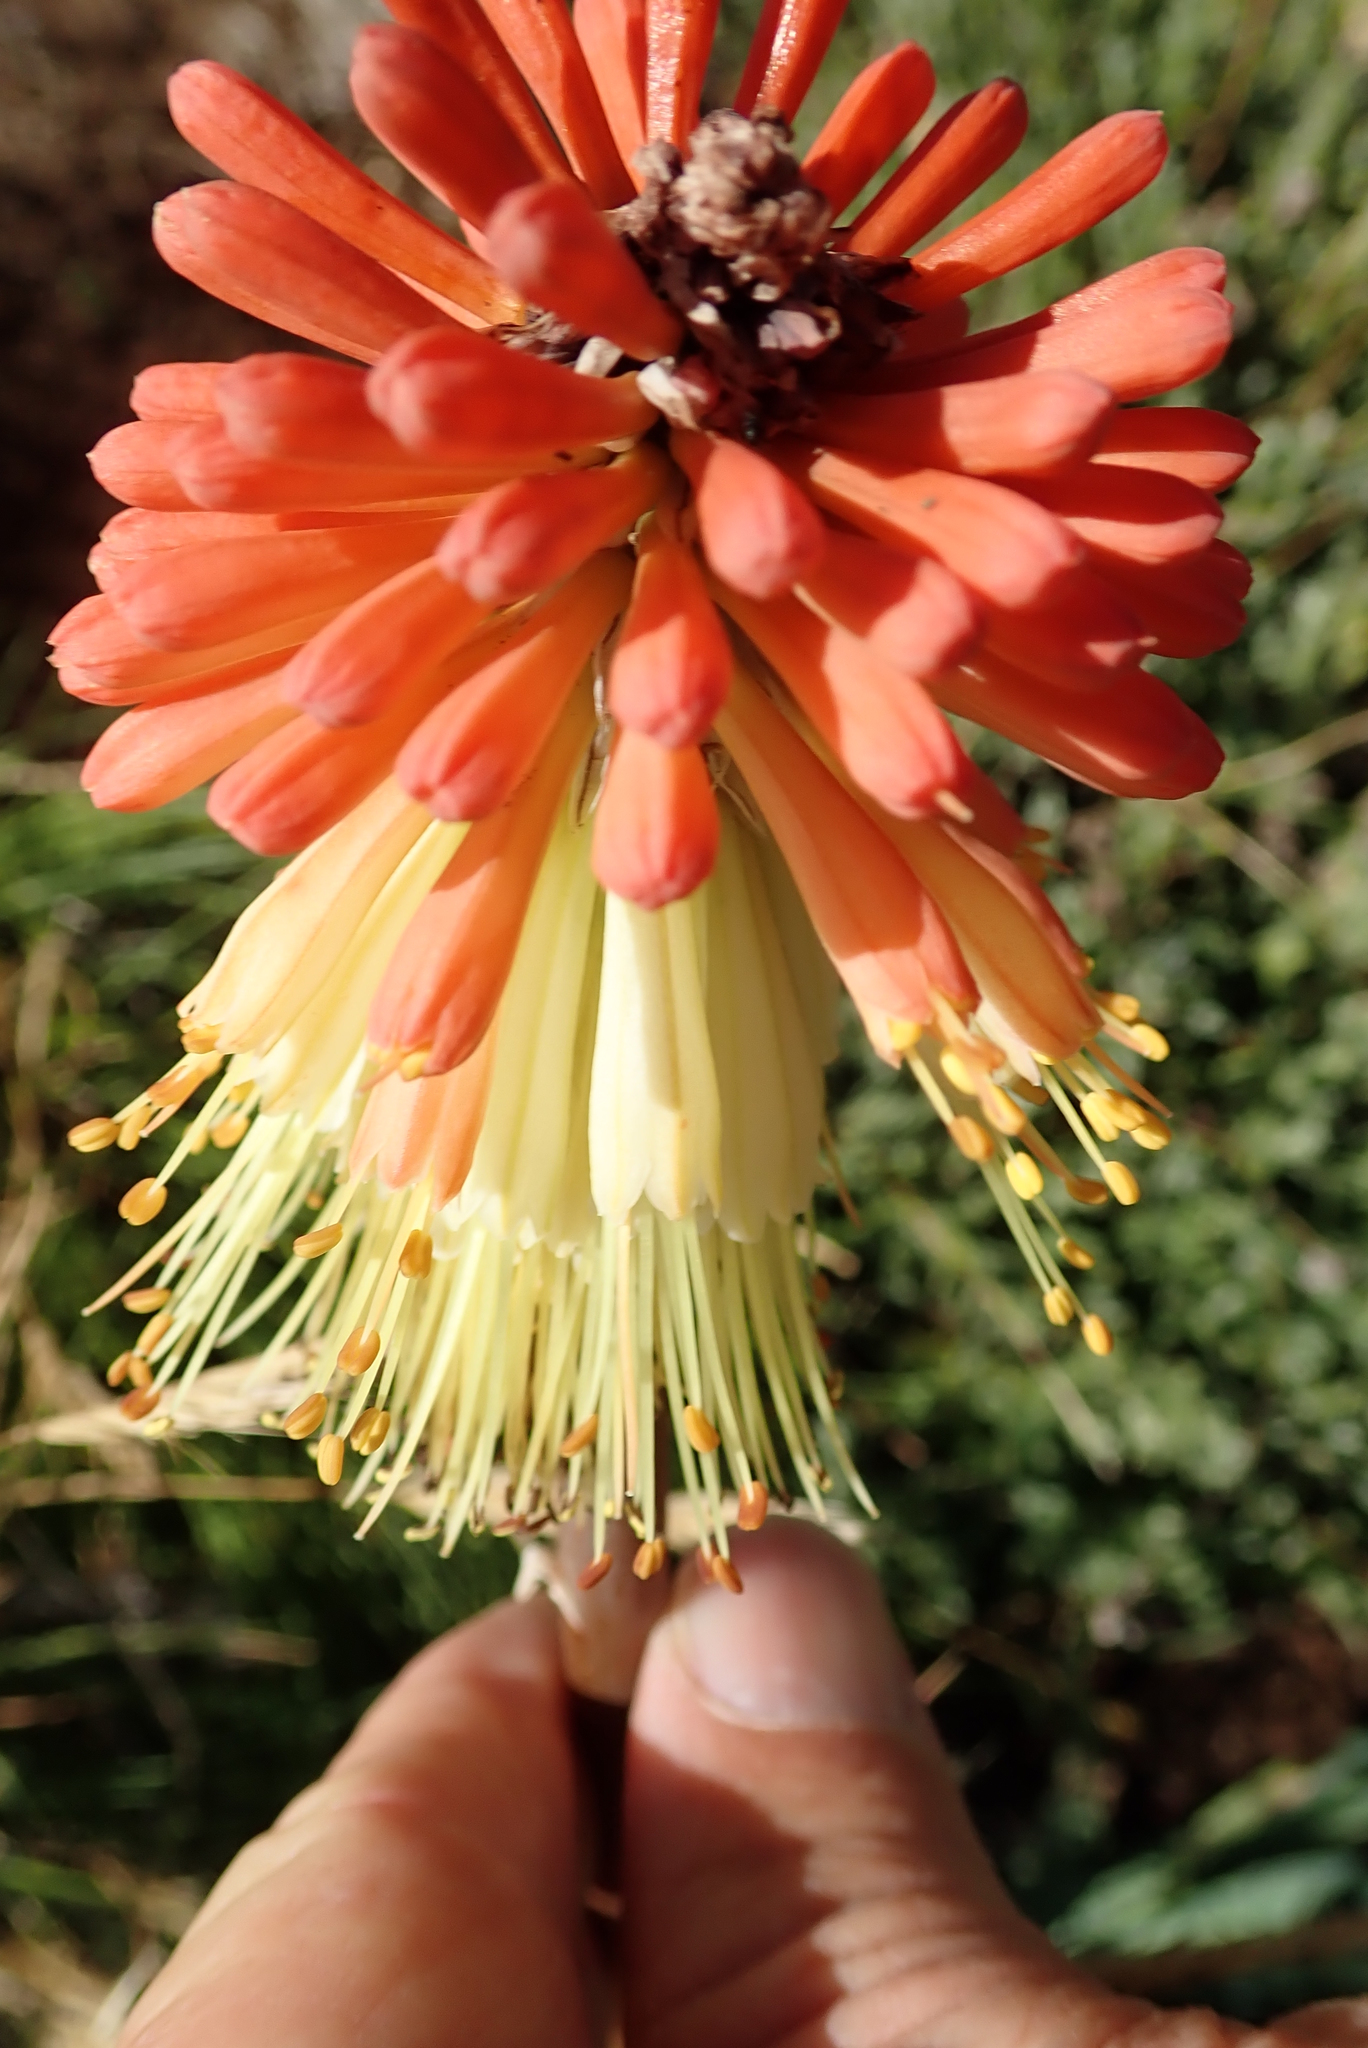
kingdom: Plantae
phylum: Tracheophyta
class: Liliopsida
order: Asparagales
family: Asphodelaceae
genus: Kniphofia
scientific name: Kniphofia caulescens
